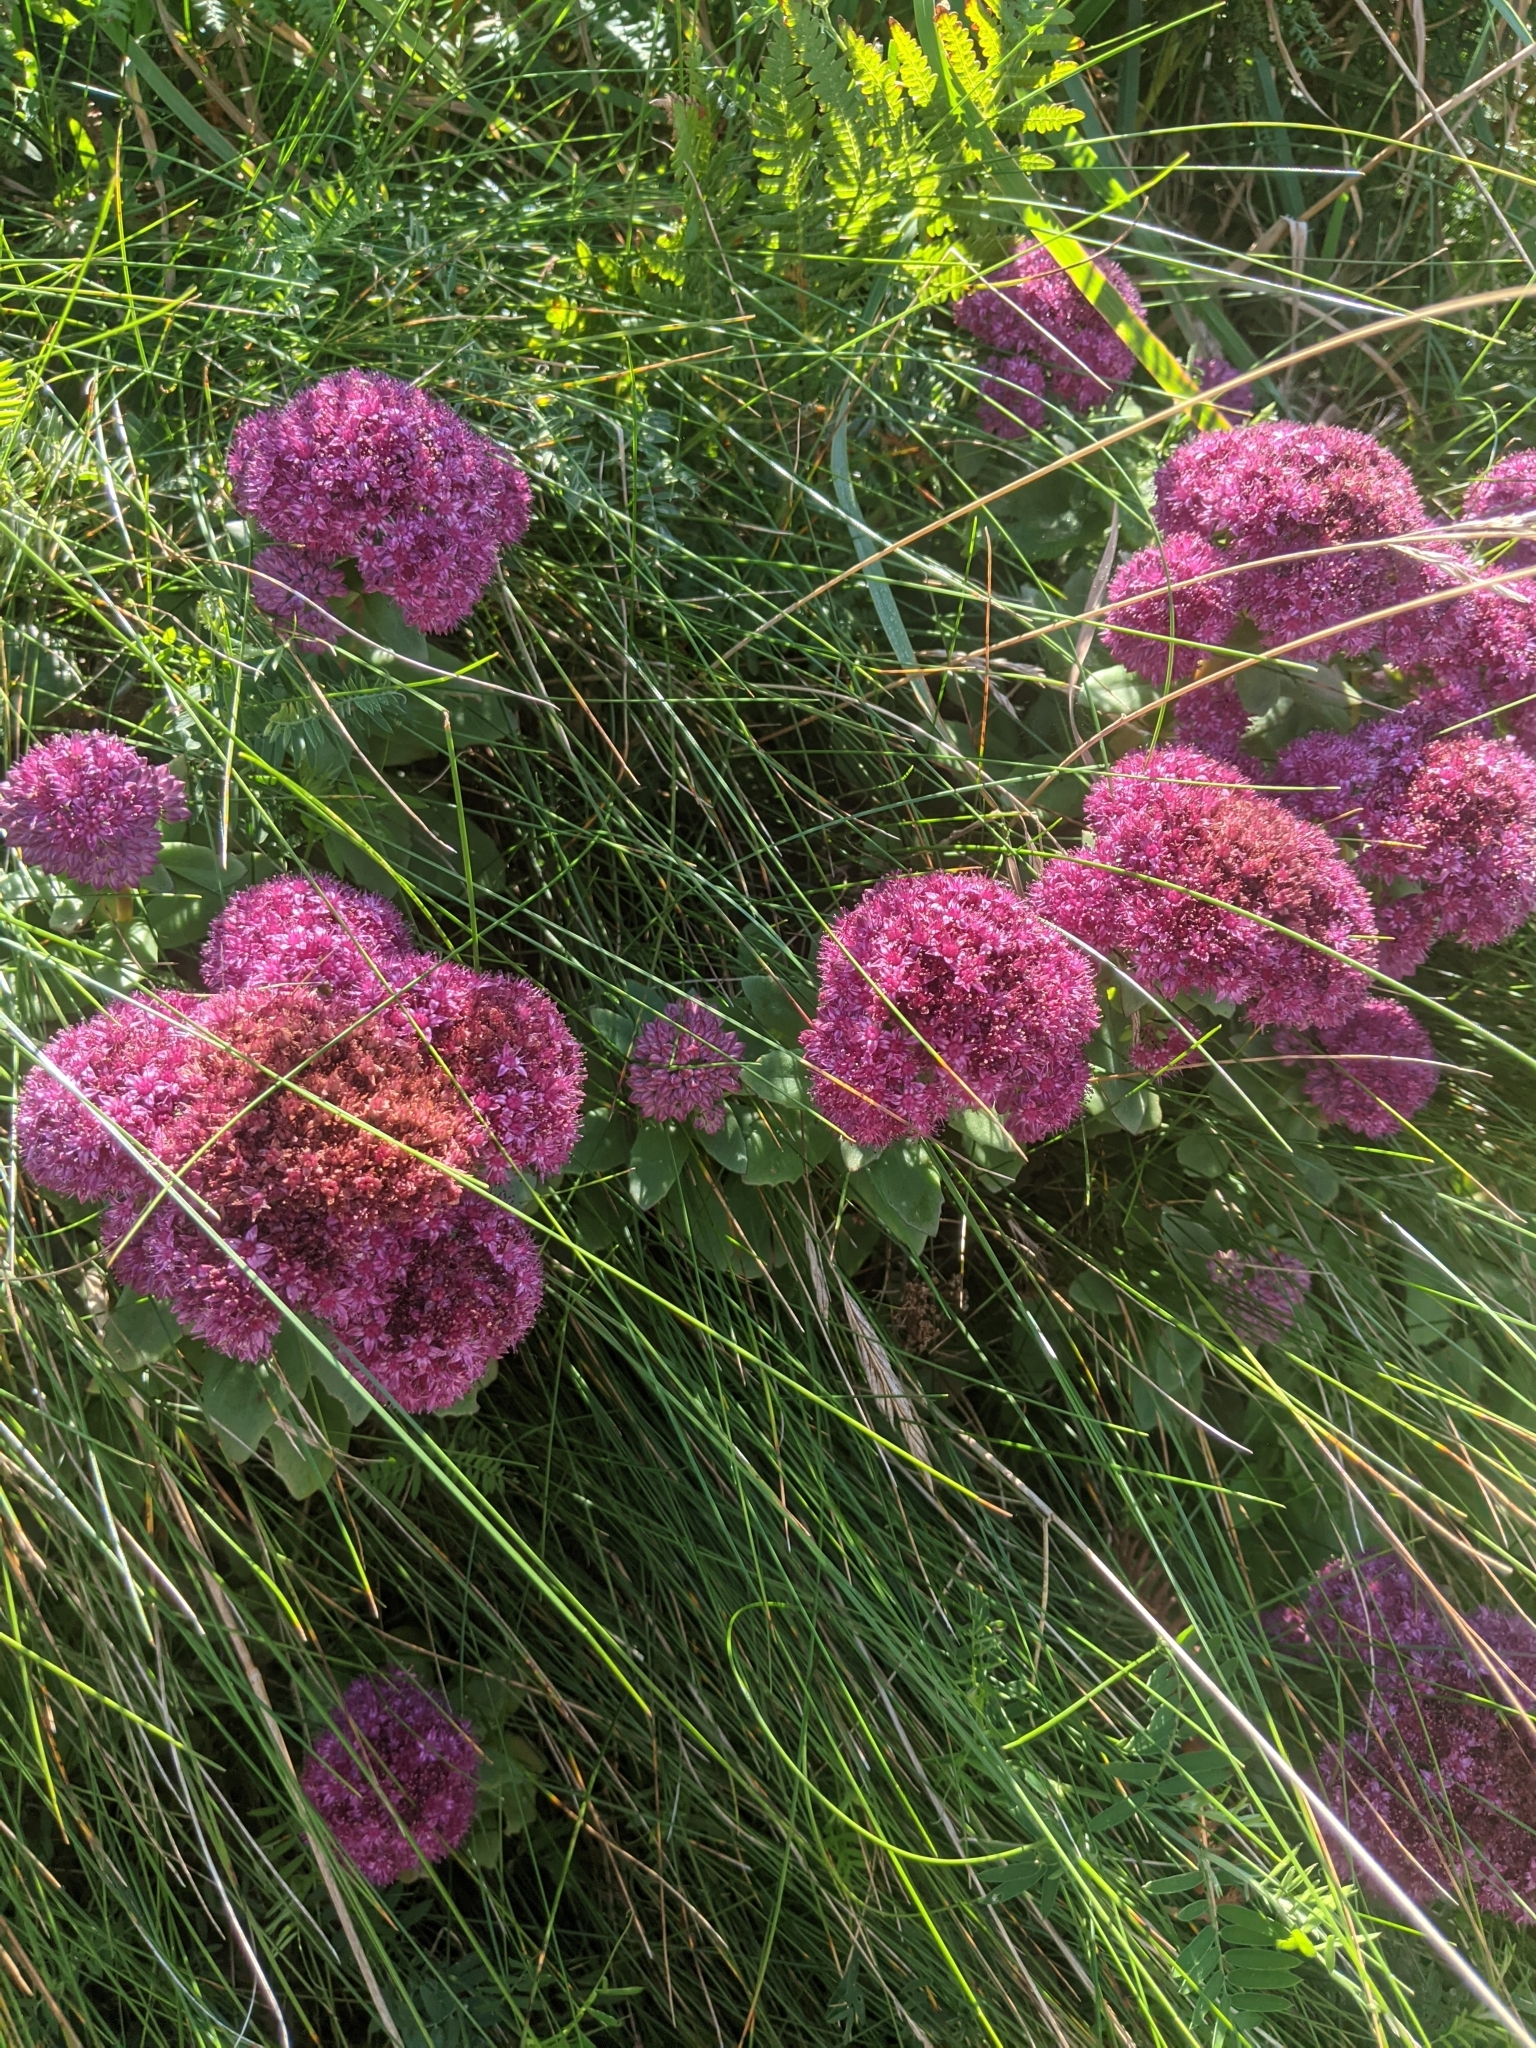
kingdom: Plantae
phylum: Tracheophyta
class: Magnoliopsida
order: Saxifragales
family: Crassulaceae
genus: Hylotelephium
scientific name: Hylotelephium telephium
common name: Live-forever
